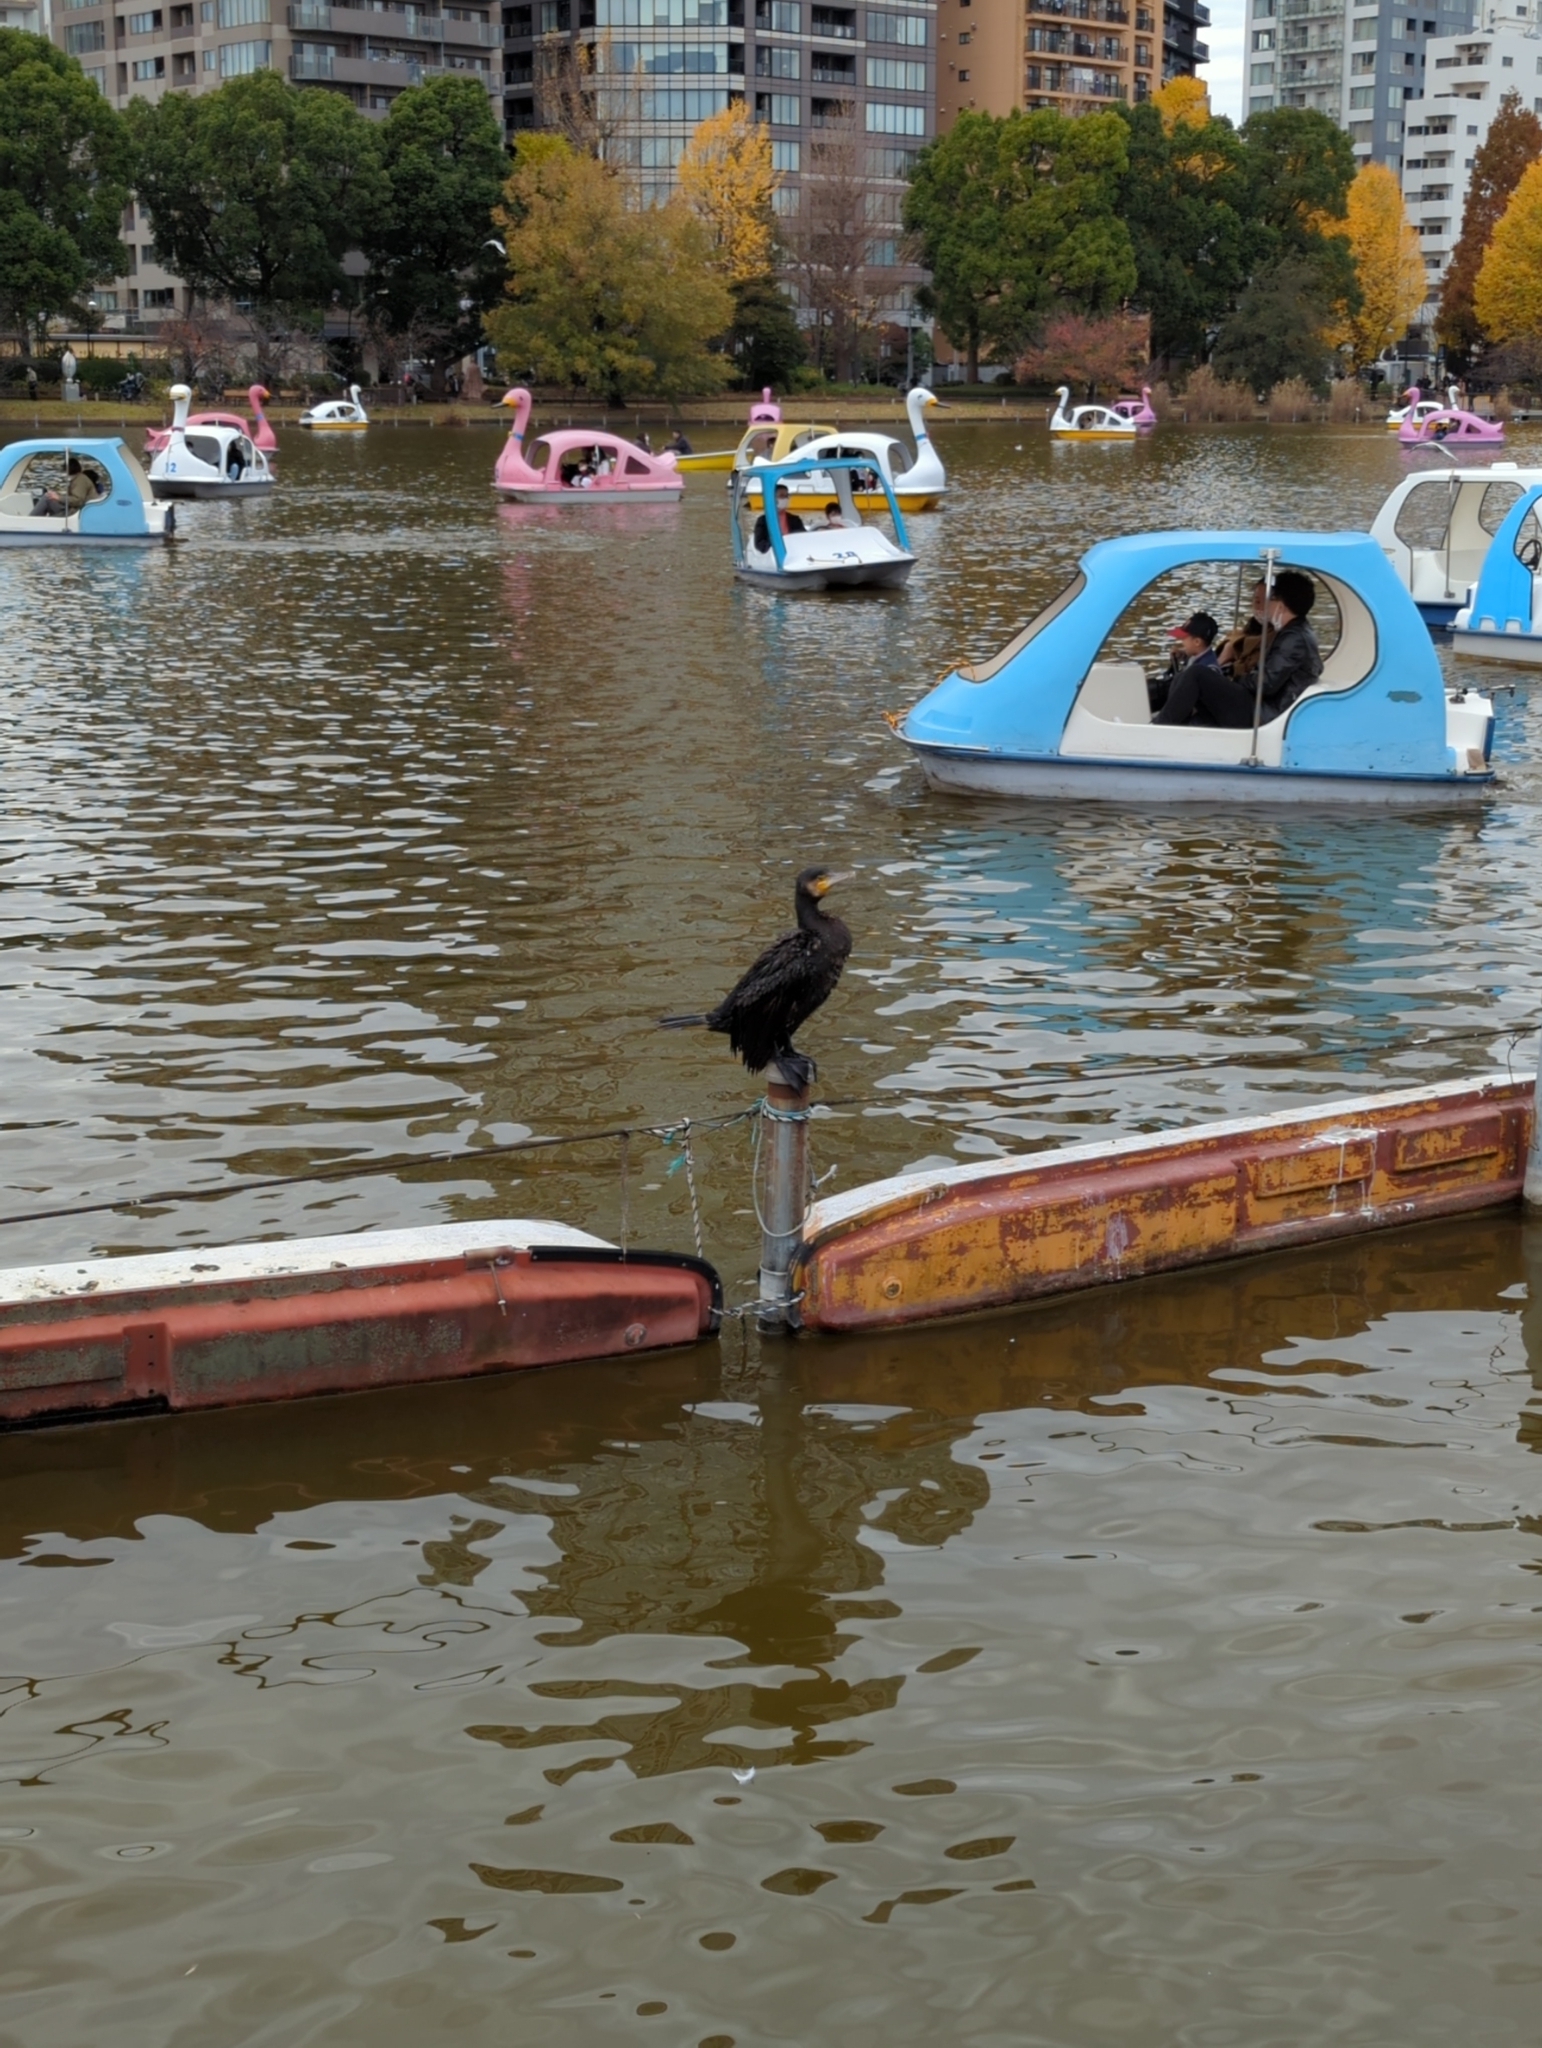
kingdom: Animalia
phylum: Chordata
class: Aves
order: Suliformes
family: Phalacrocoracidae
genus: Phalacrocorax
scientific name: Phalacrocorax carbo
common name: Great cormorant
